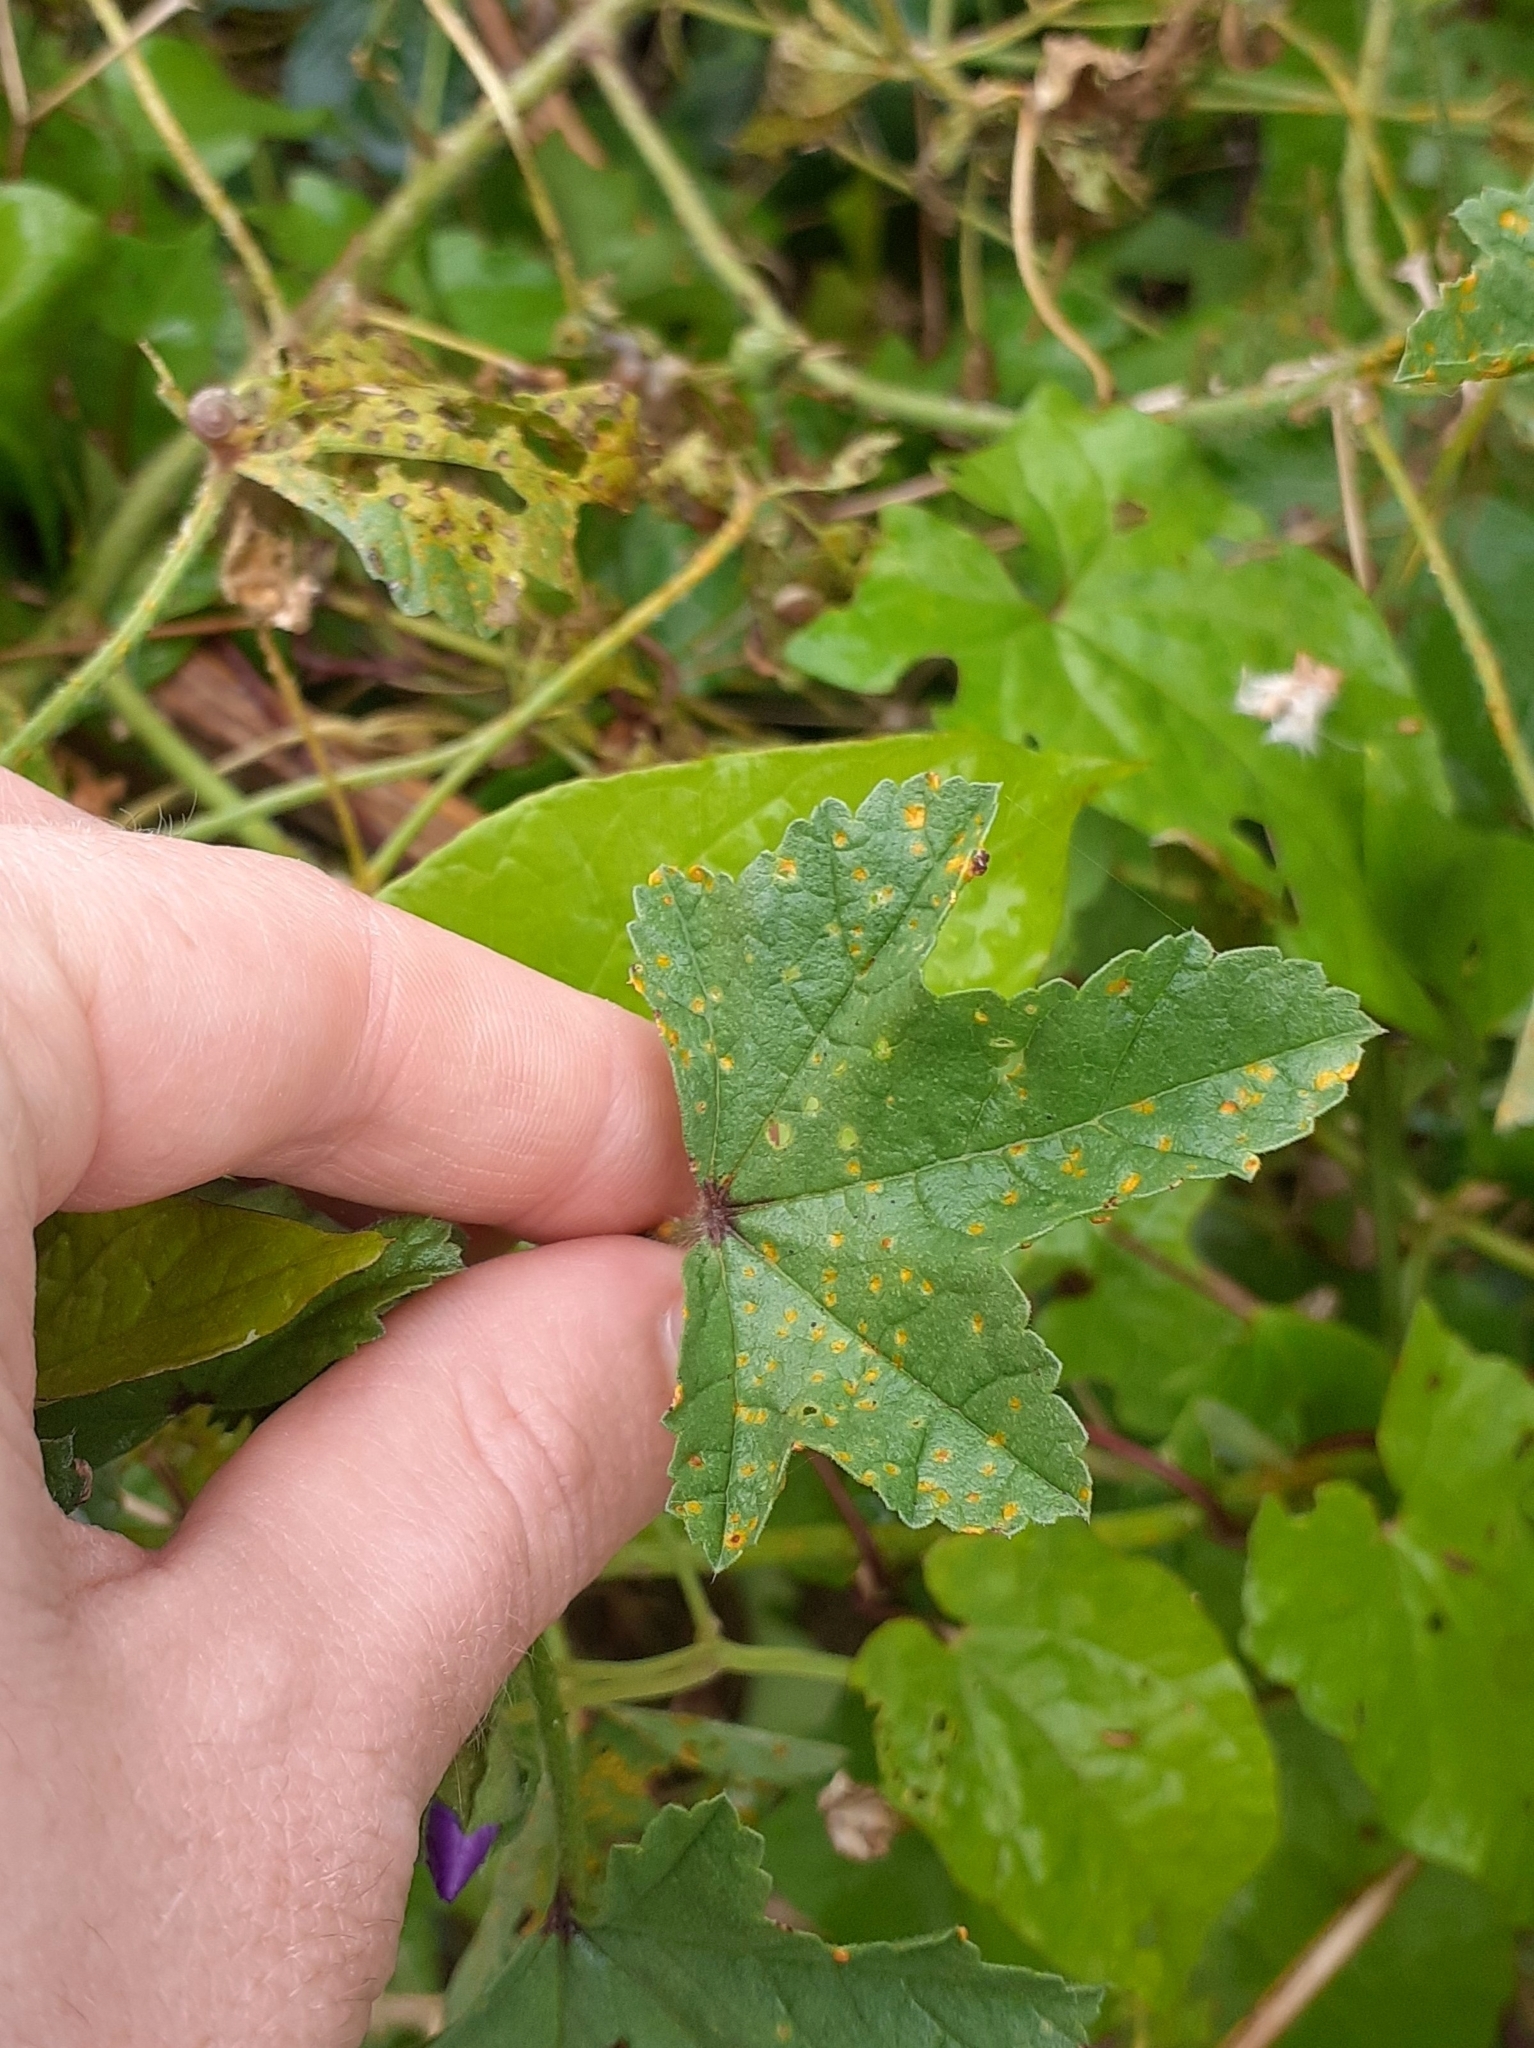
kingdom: Fungi
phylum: Basidiomycota
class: Pucciniomycetes
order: Pucciniales
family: Pucciniaceae
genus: Puccinia
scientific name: Puccinia malvacearum
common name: Hollyhock rust
